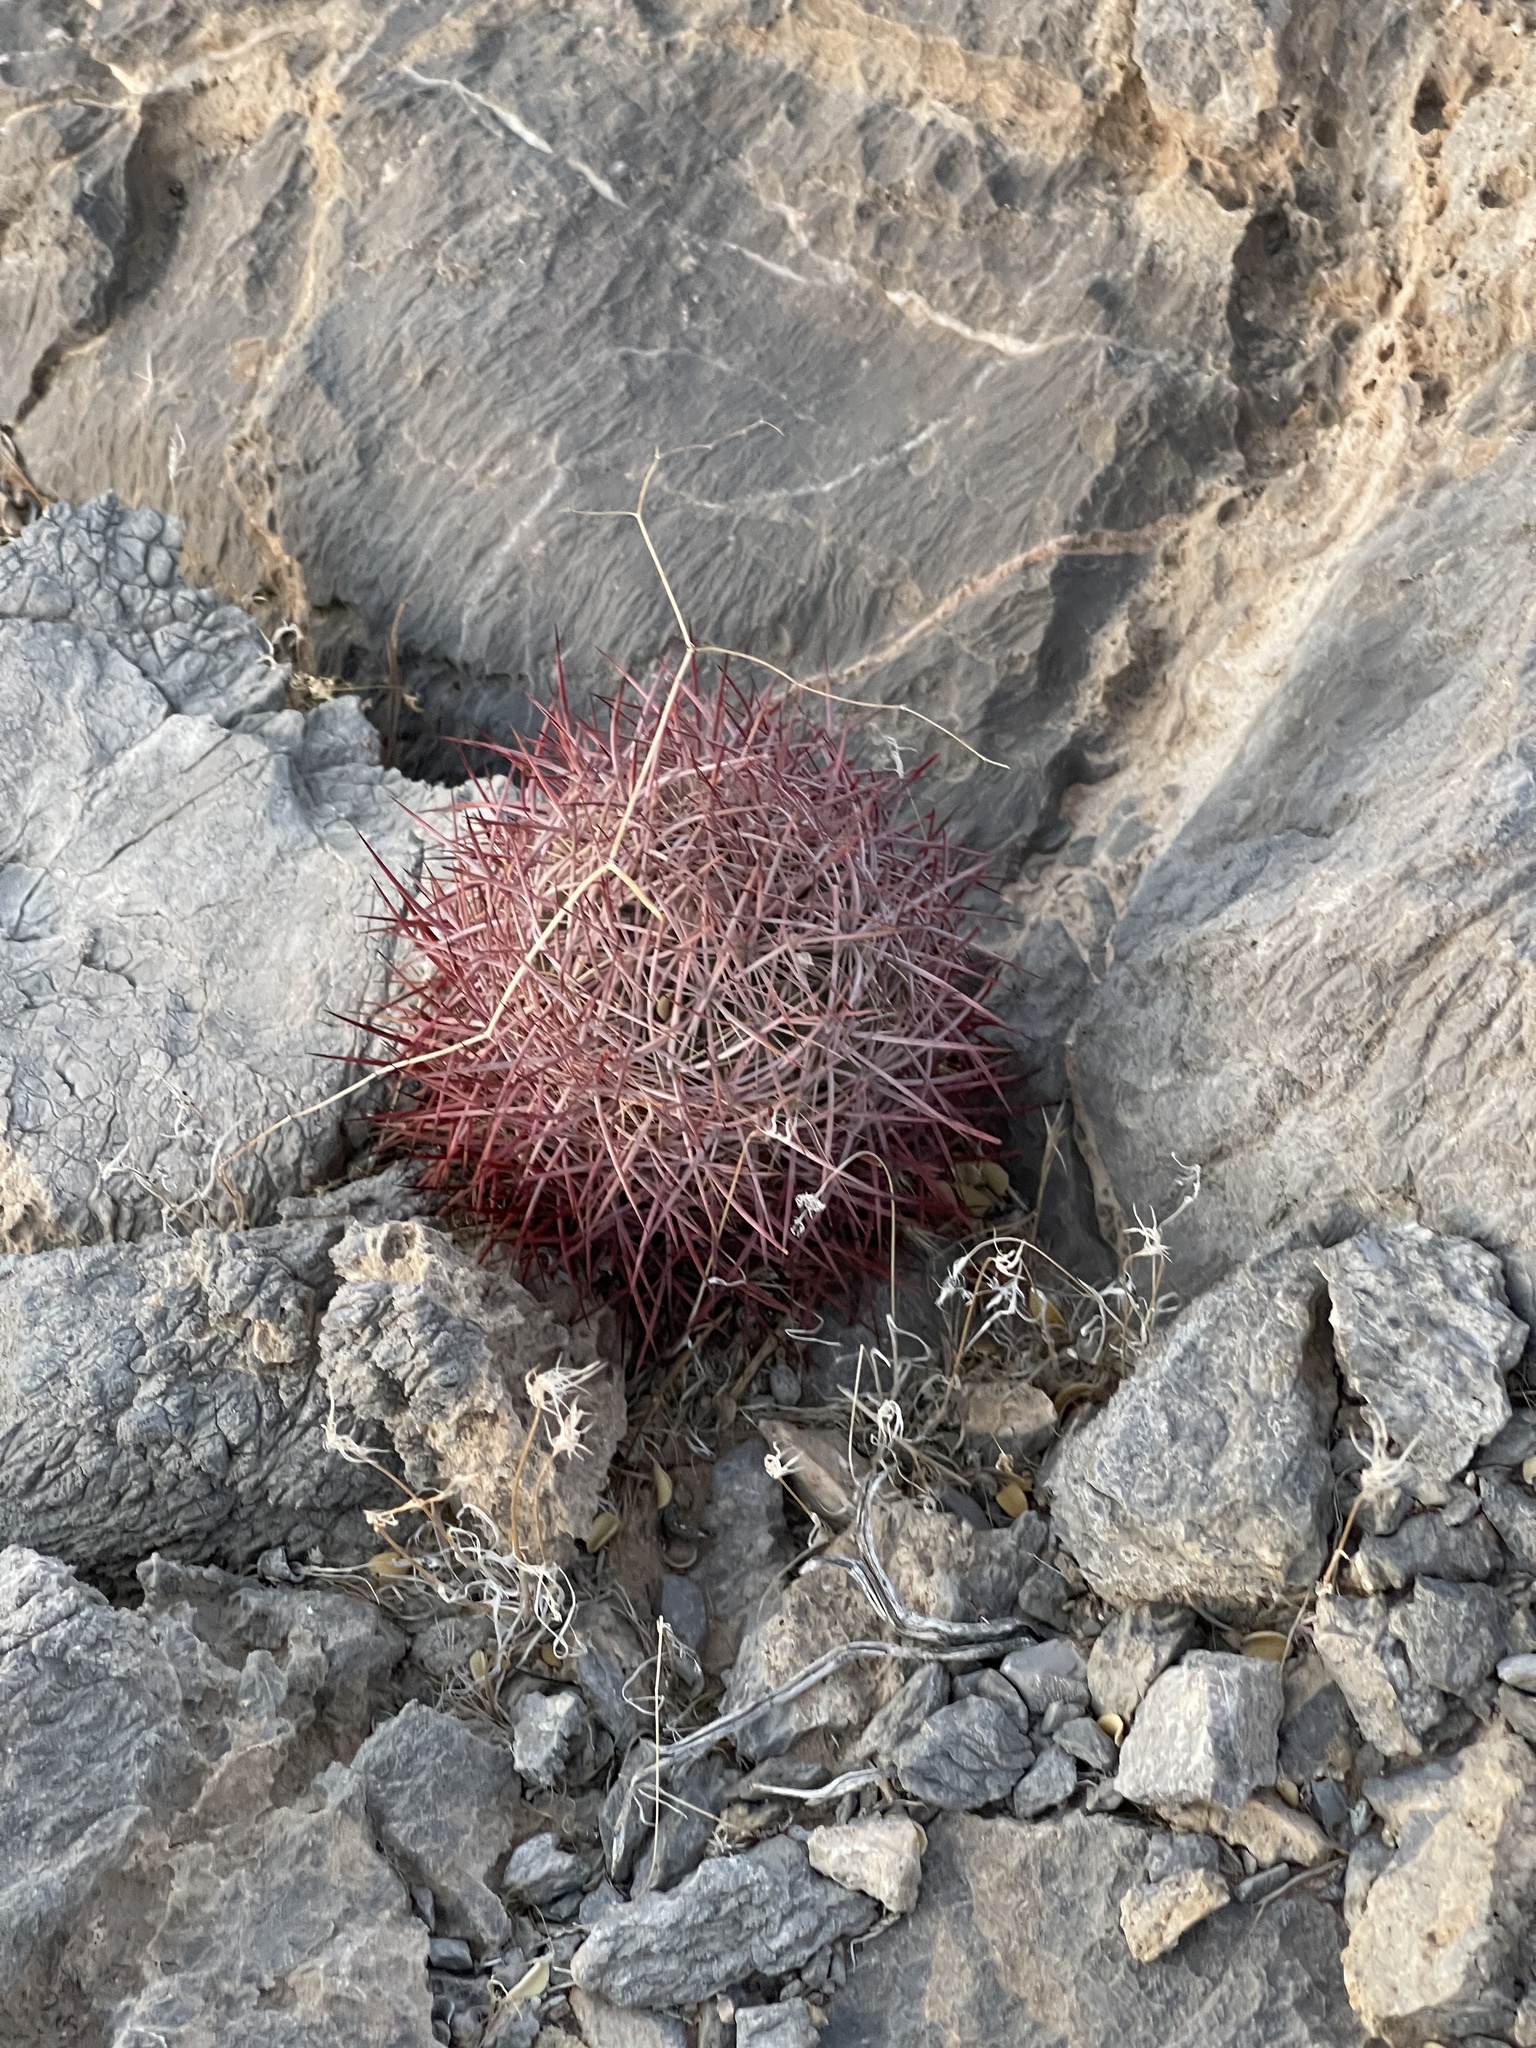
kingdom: Plantae
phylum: Tracheophyta
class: Magnoliopsida
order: Caryophyllales
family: Cactaceae
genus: Sclerocactus
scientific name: Sclerocactus johnsonii
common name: Eight-spine fishhook cactus
